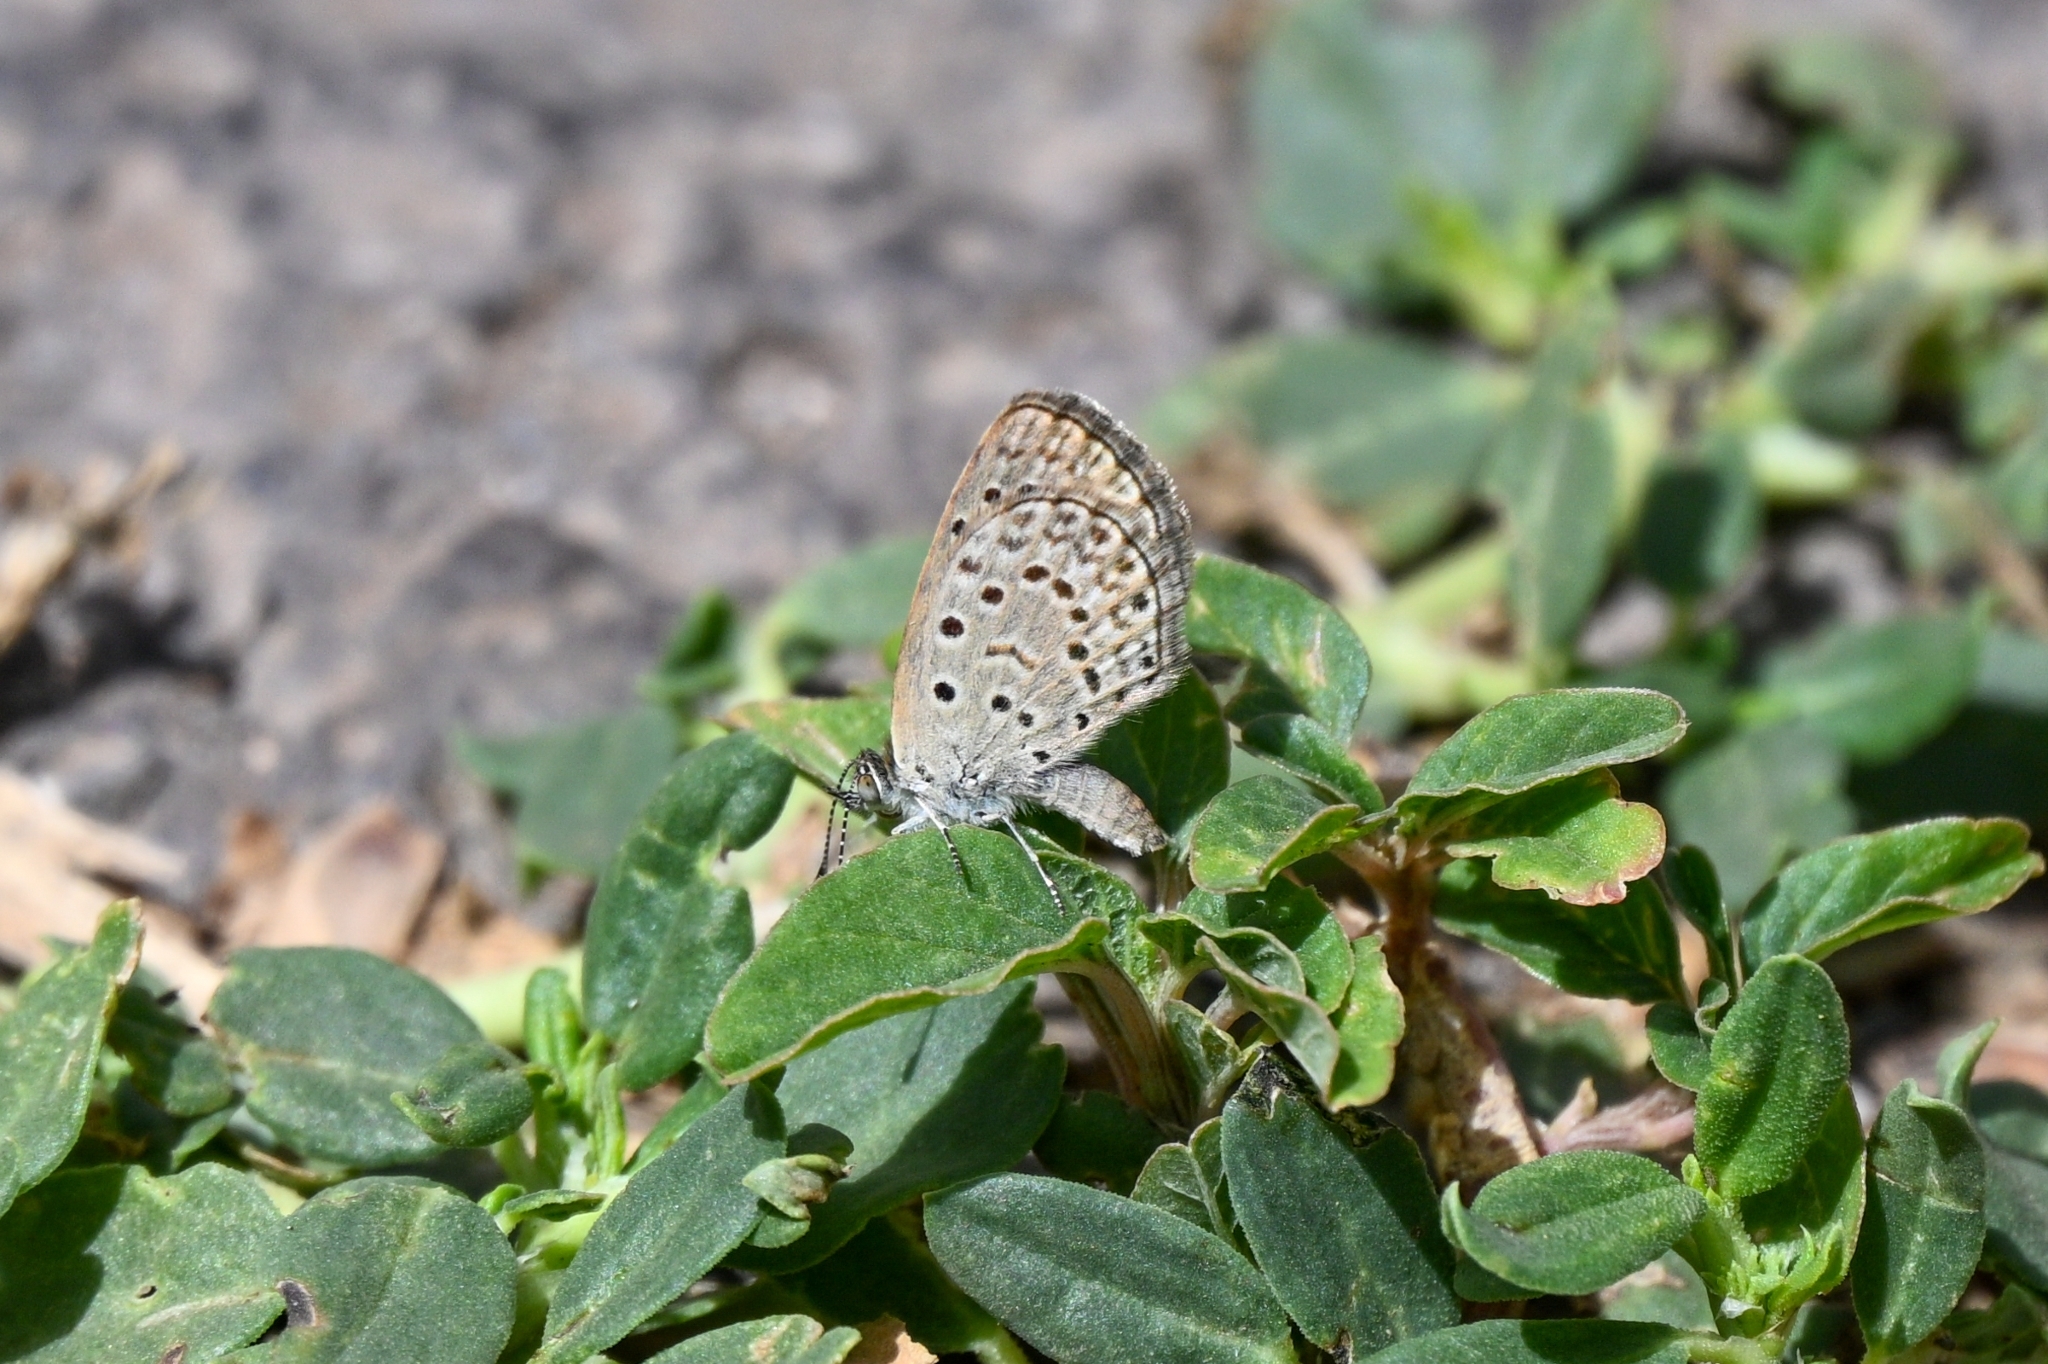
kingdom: Animalia
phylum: Arthropoda
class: Insecta
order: Lepidoptera
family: Lycaenidae
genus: Zizeeria
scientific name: Zizeeria knysna
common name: African grass blue
